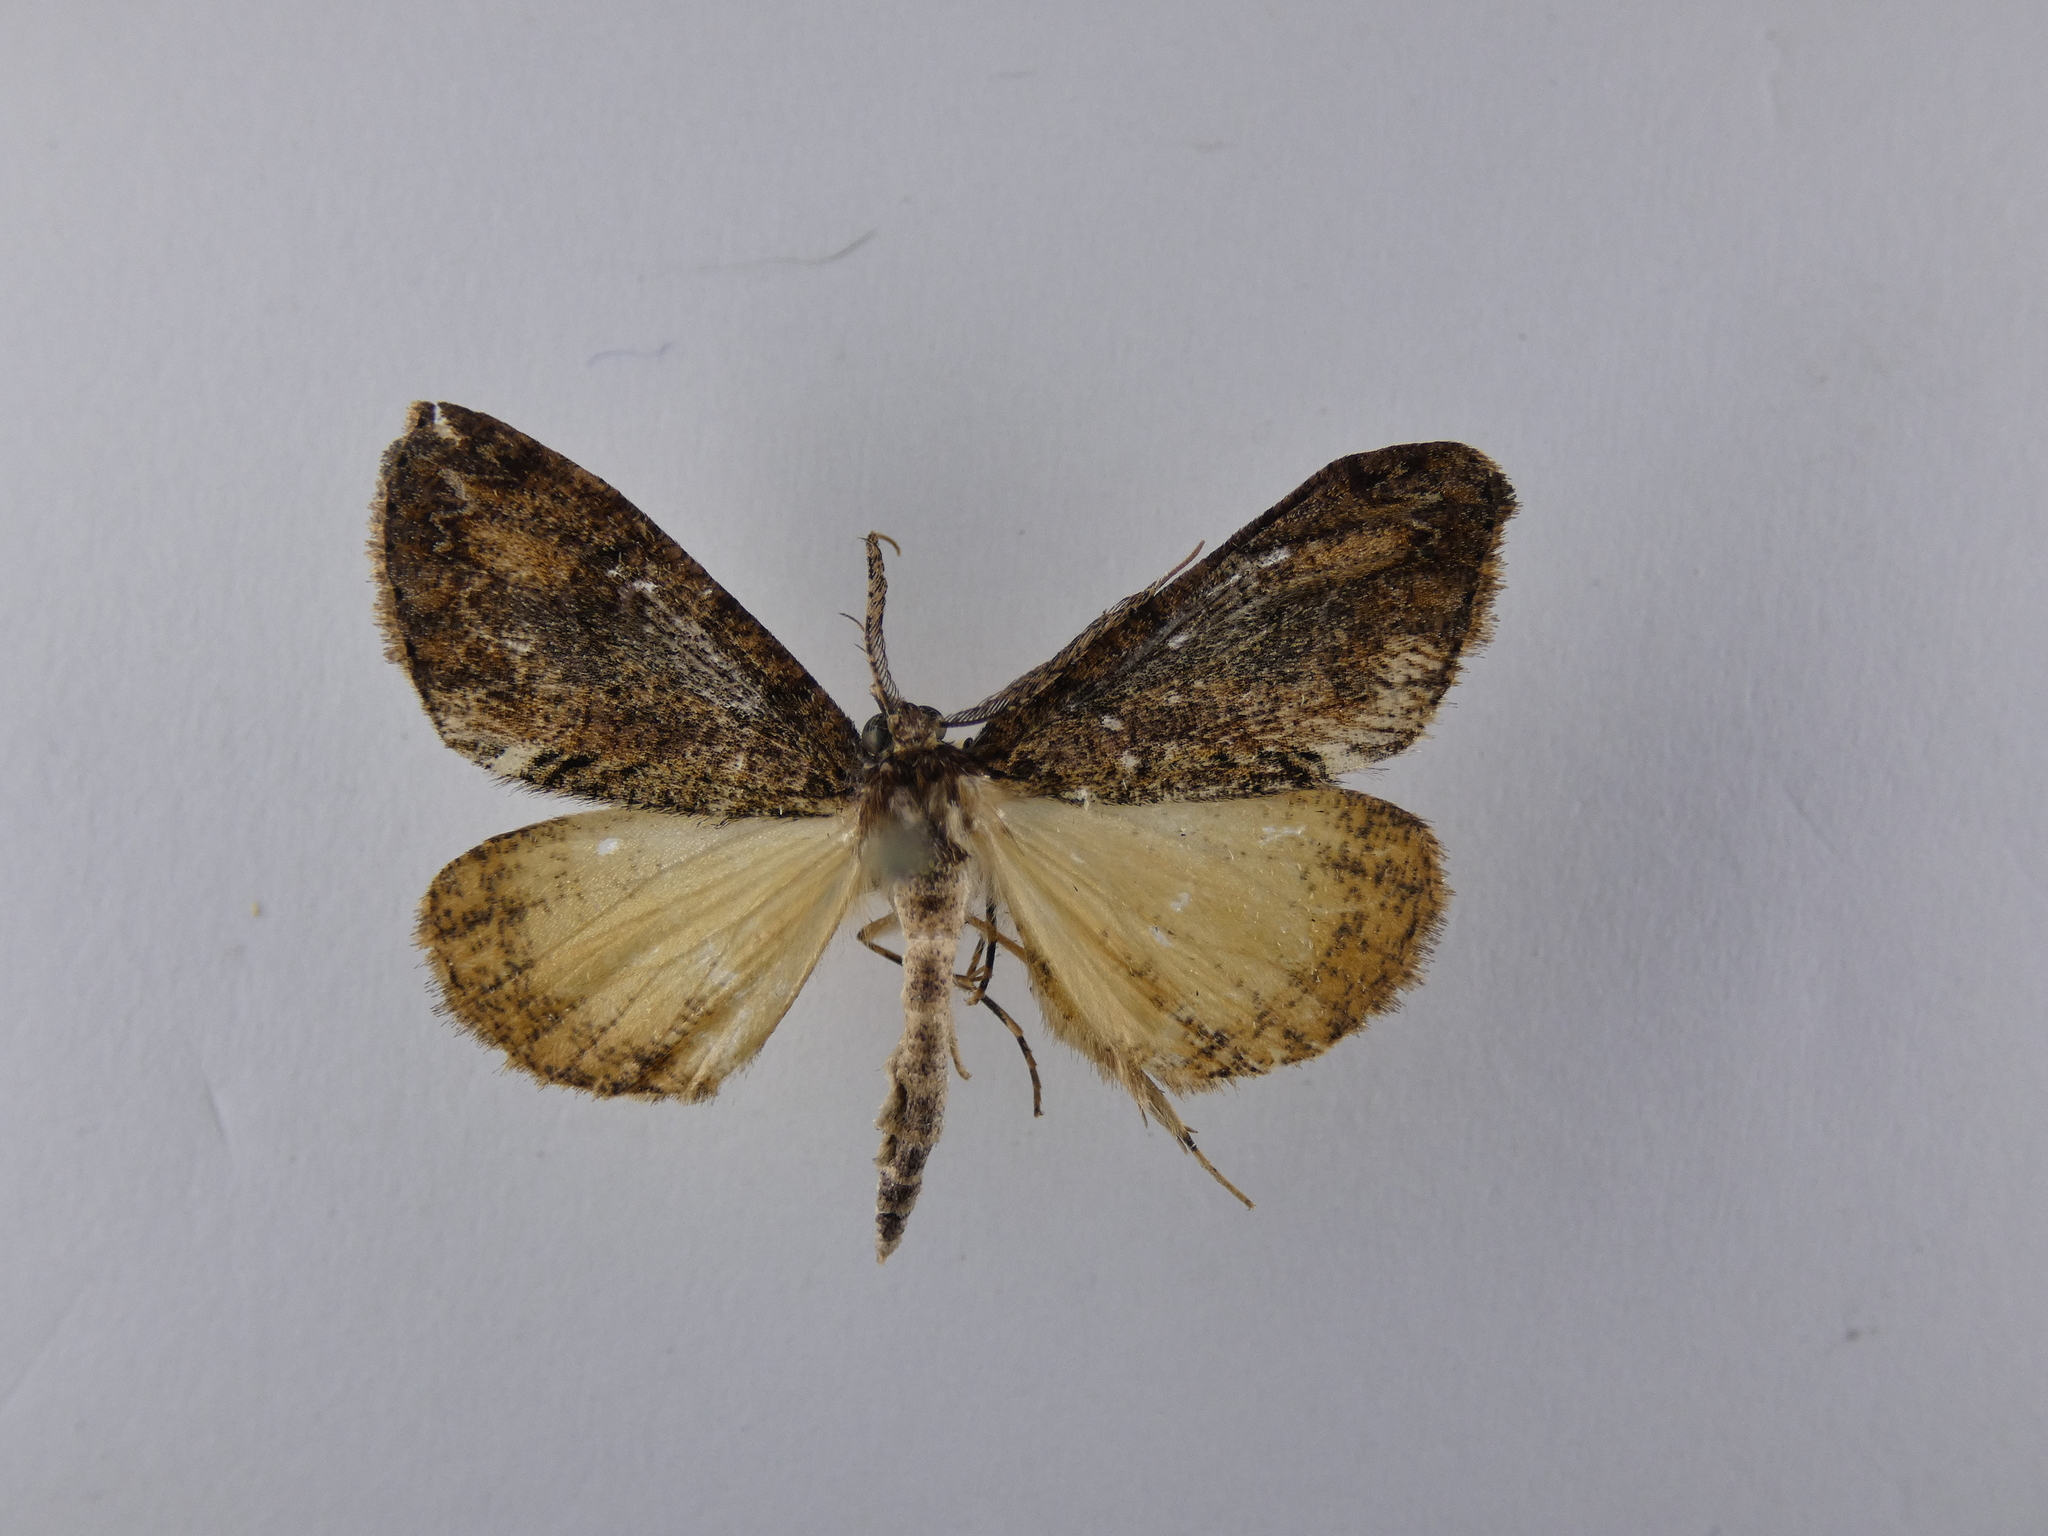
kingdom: Animalia
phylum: Arthropoda
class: Insecta
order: Lepidoptera
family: Geometridae
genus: Pseudocoremia
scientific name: Pseudocoremia suavis
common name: Common forest looper
